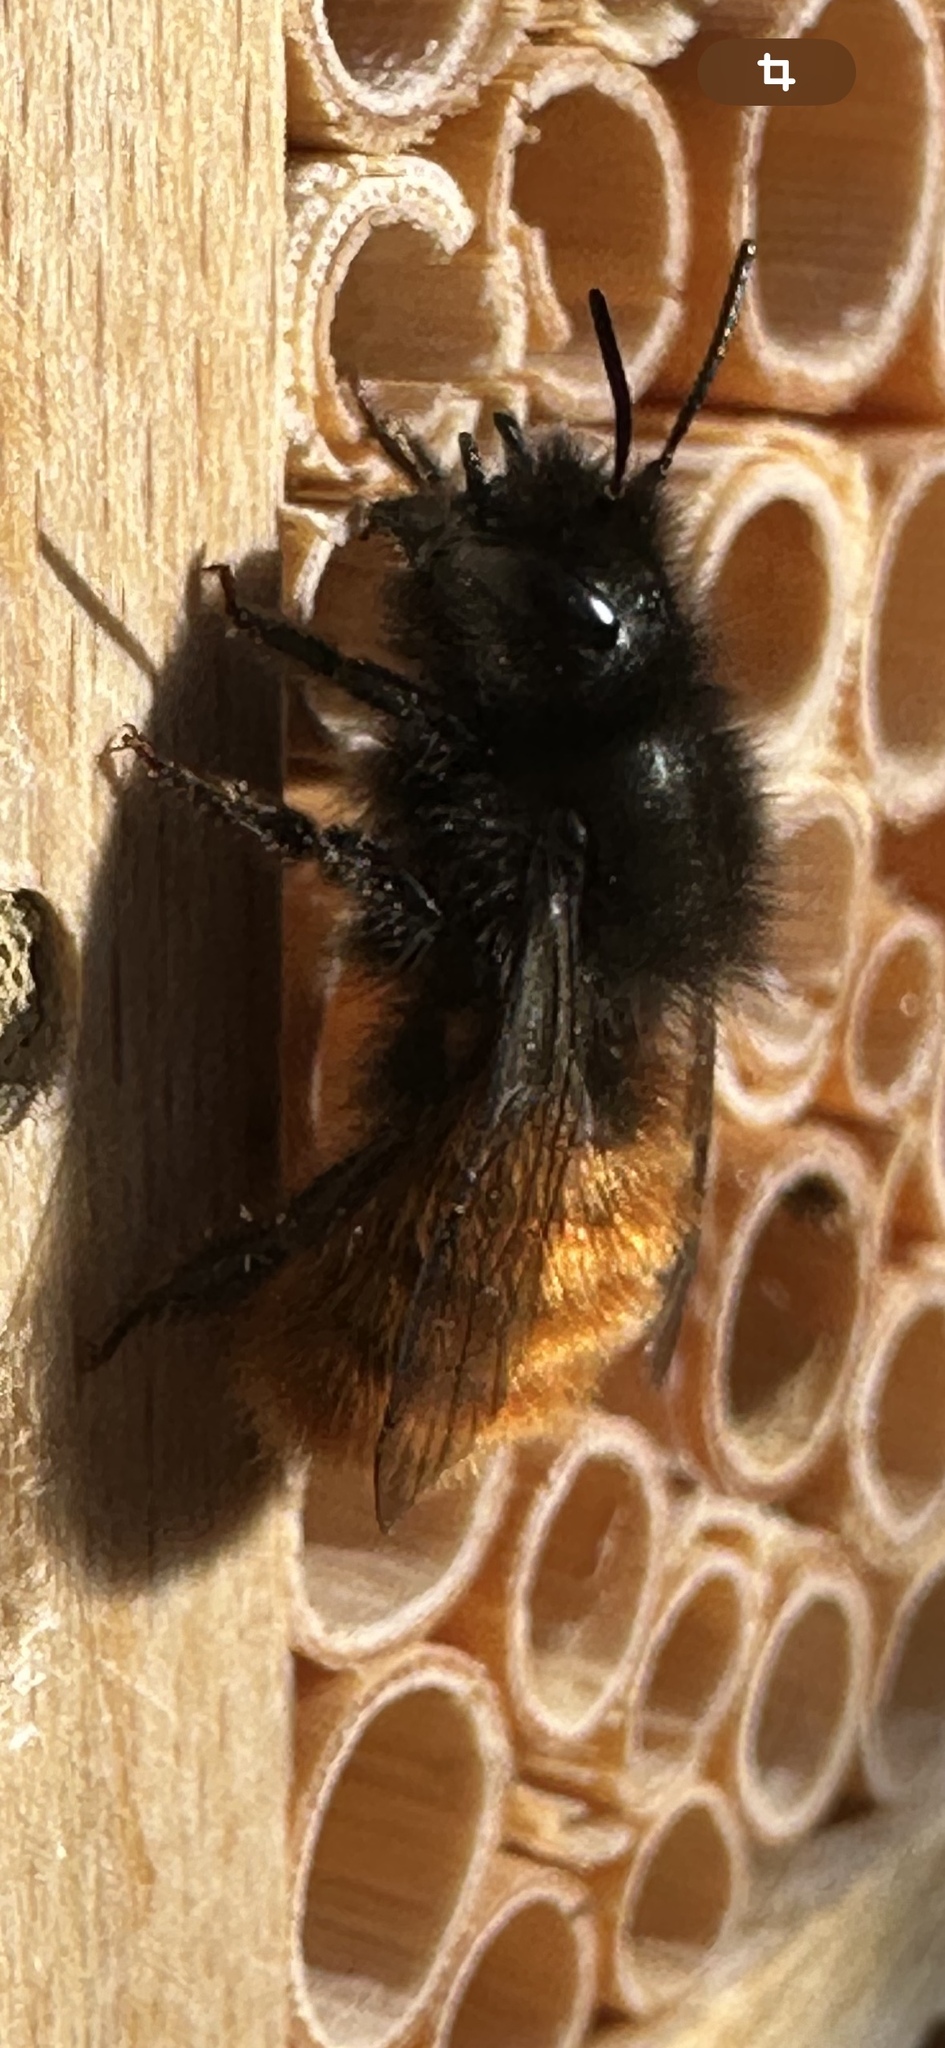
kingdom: Animalia
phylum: Arthropoda
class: Insecta
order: Hymenoptera
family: Megachilidae
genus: Osmia
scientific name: Osmia cornuta
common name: Mason bee
